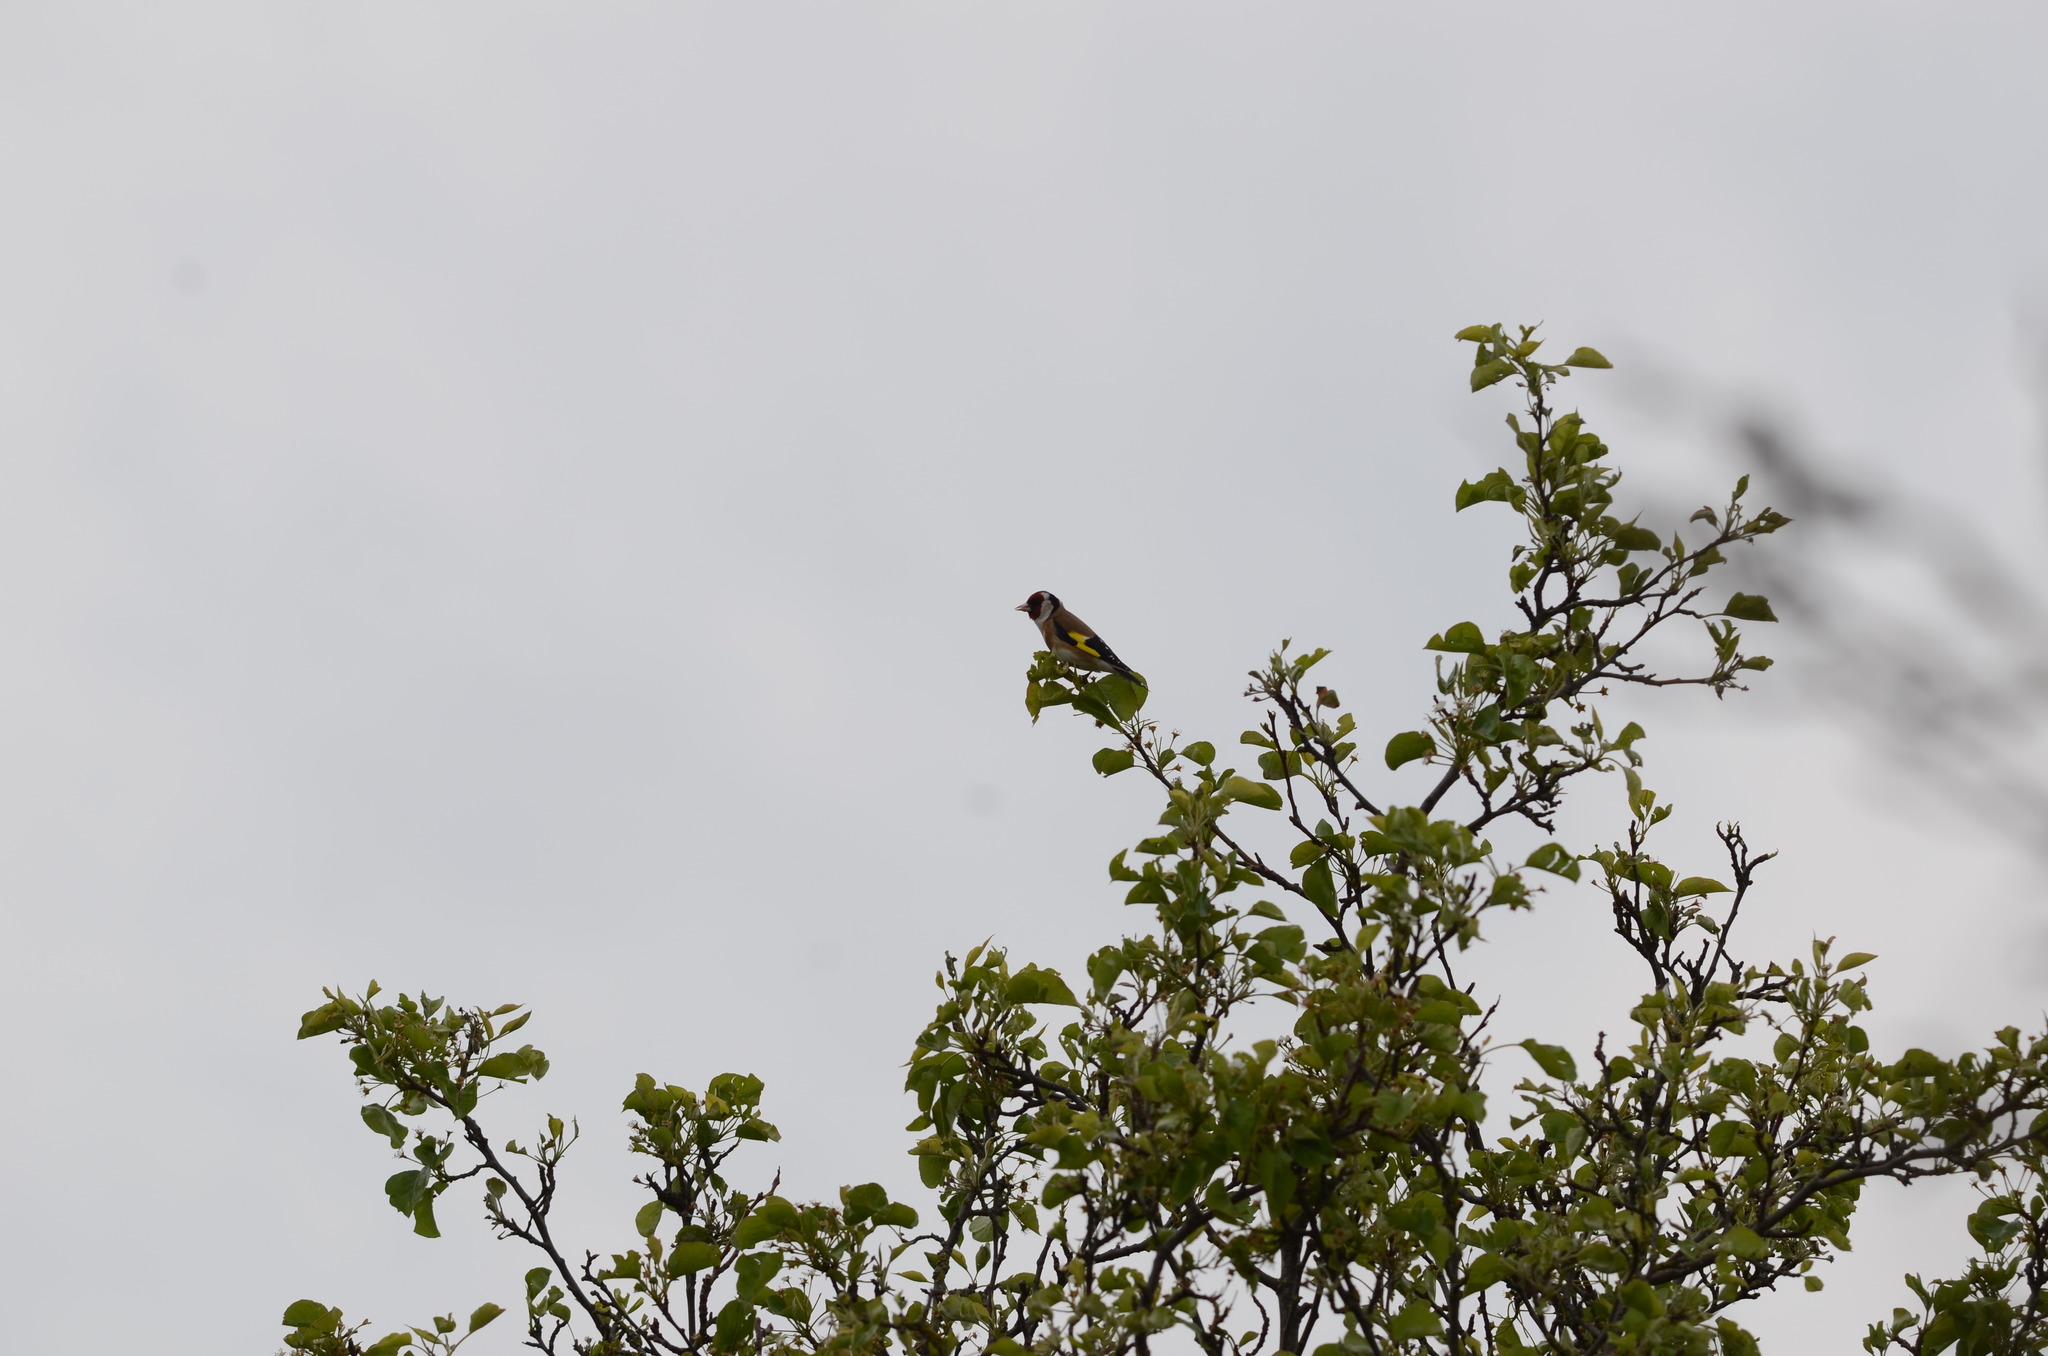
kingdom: Animalia
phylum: Chordata
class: Aves
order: Passeriformes
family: Fringillidae
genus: Carduelis
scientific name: Carduelis carduelis
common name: European goldfinch
